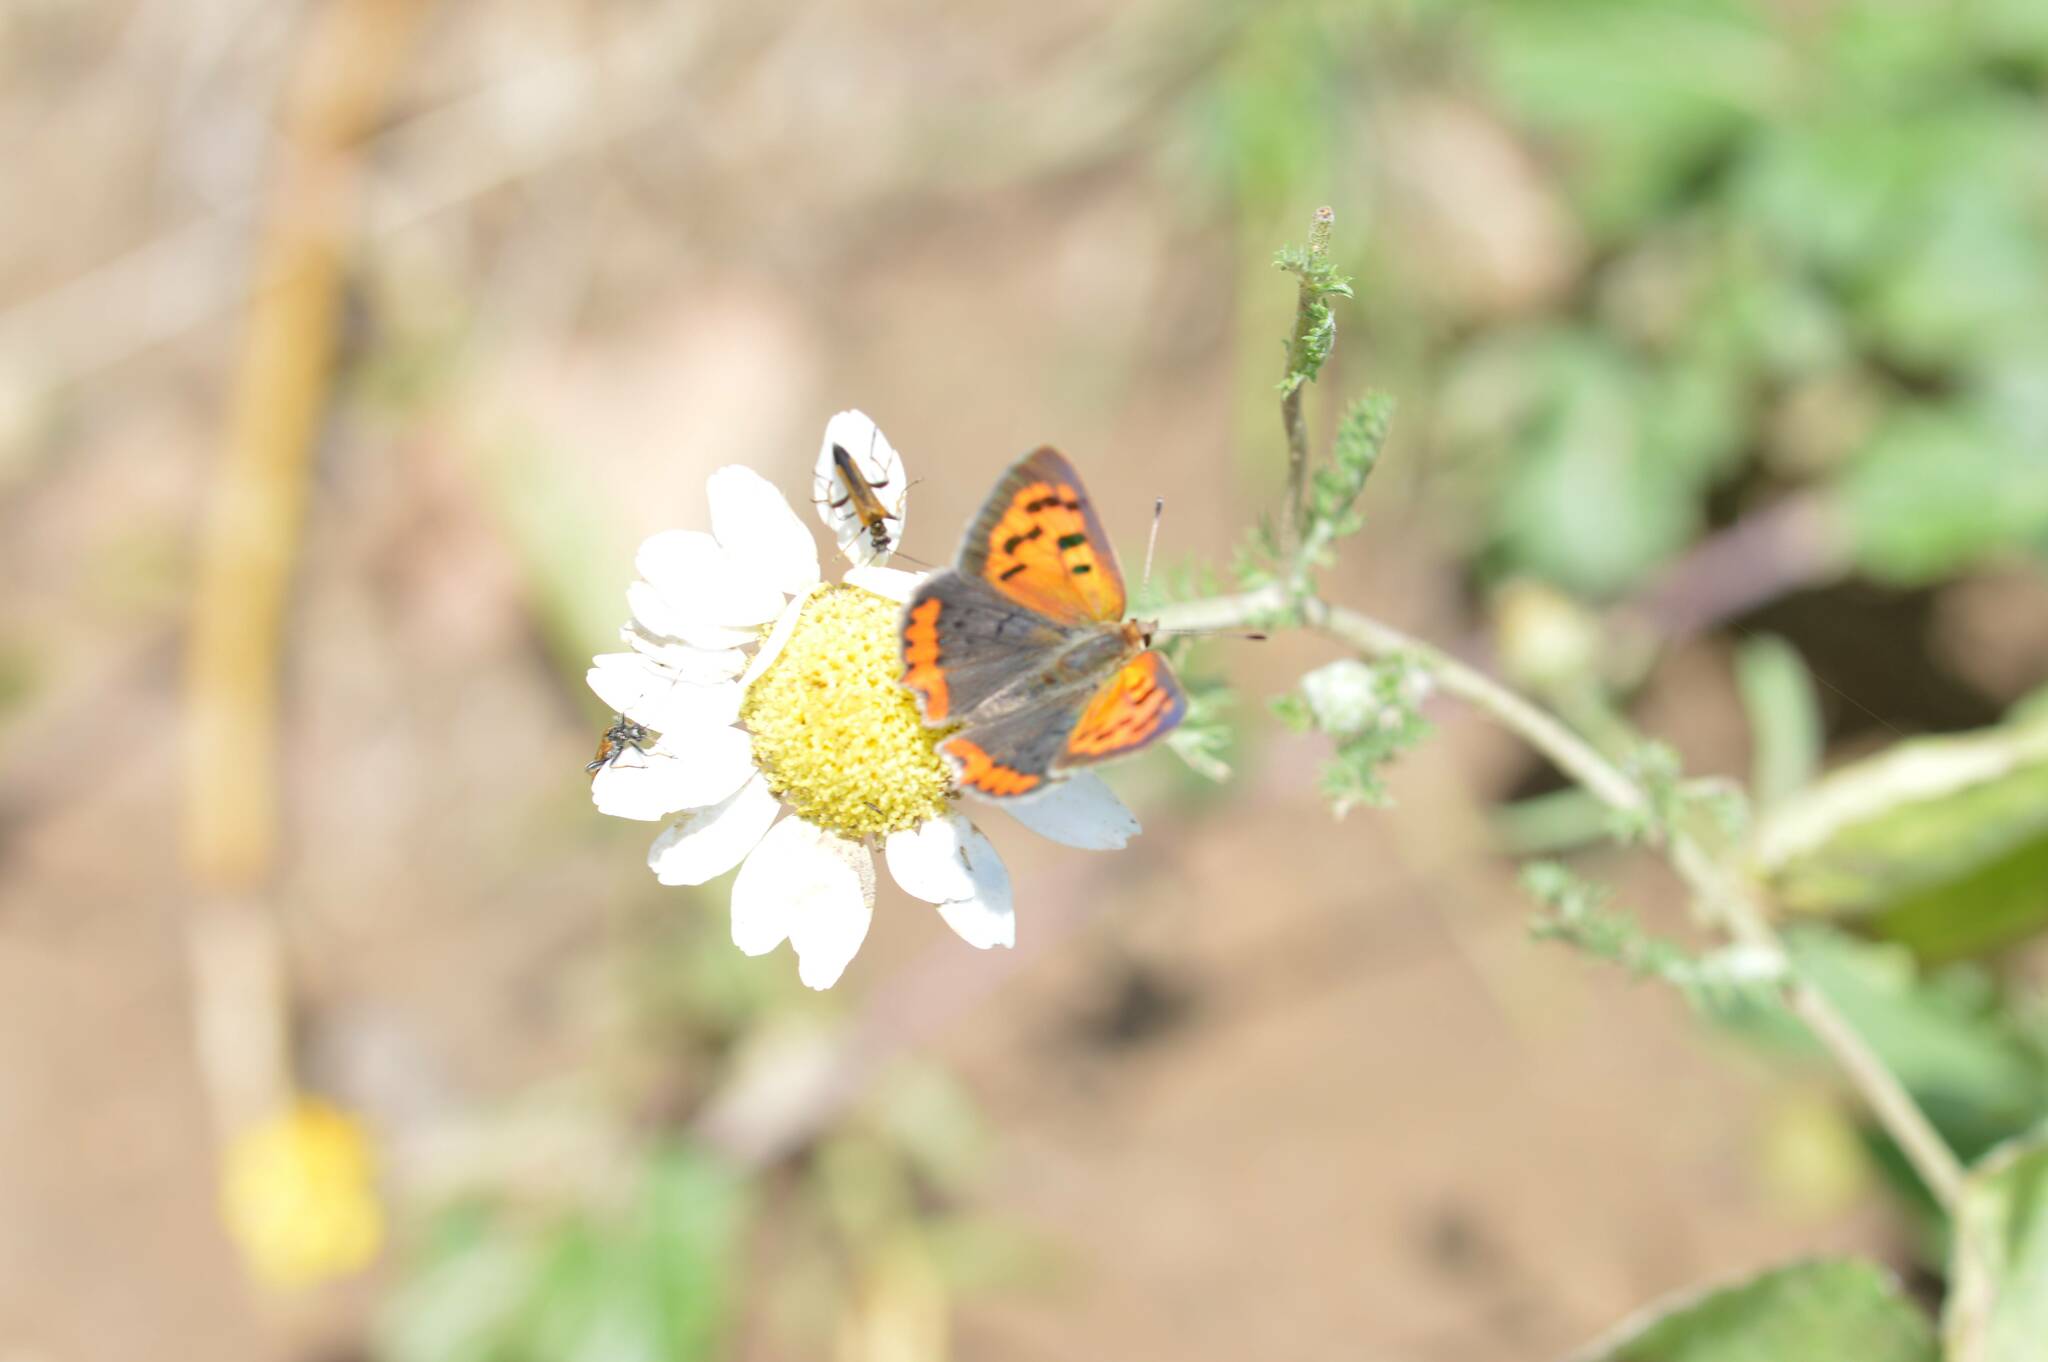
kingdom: Animalia
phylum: Arthropoda
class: Insecta
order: Lepidoptera
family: Lycaenidae
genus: Lycaena
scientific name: Lycaena phlaeas
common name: Small copper
